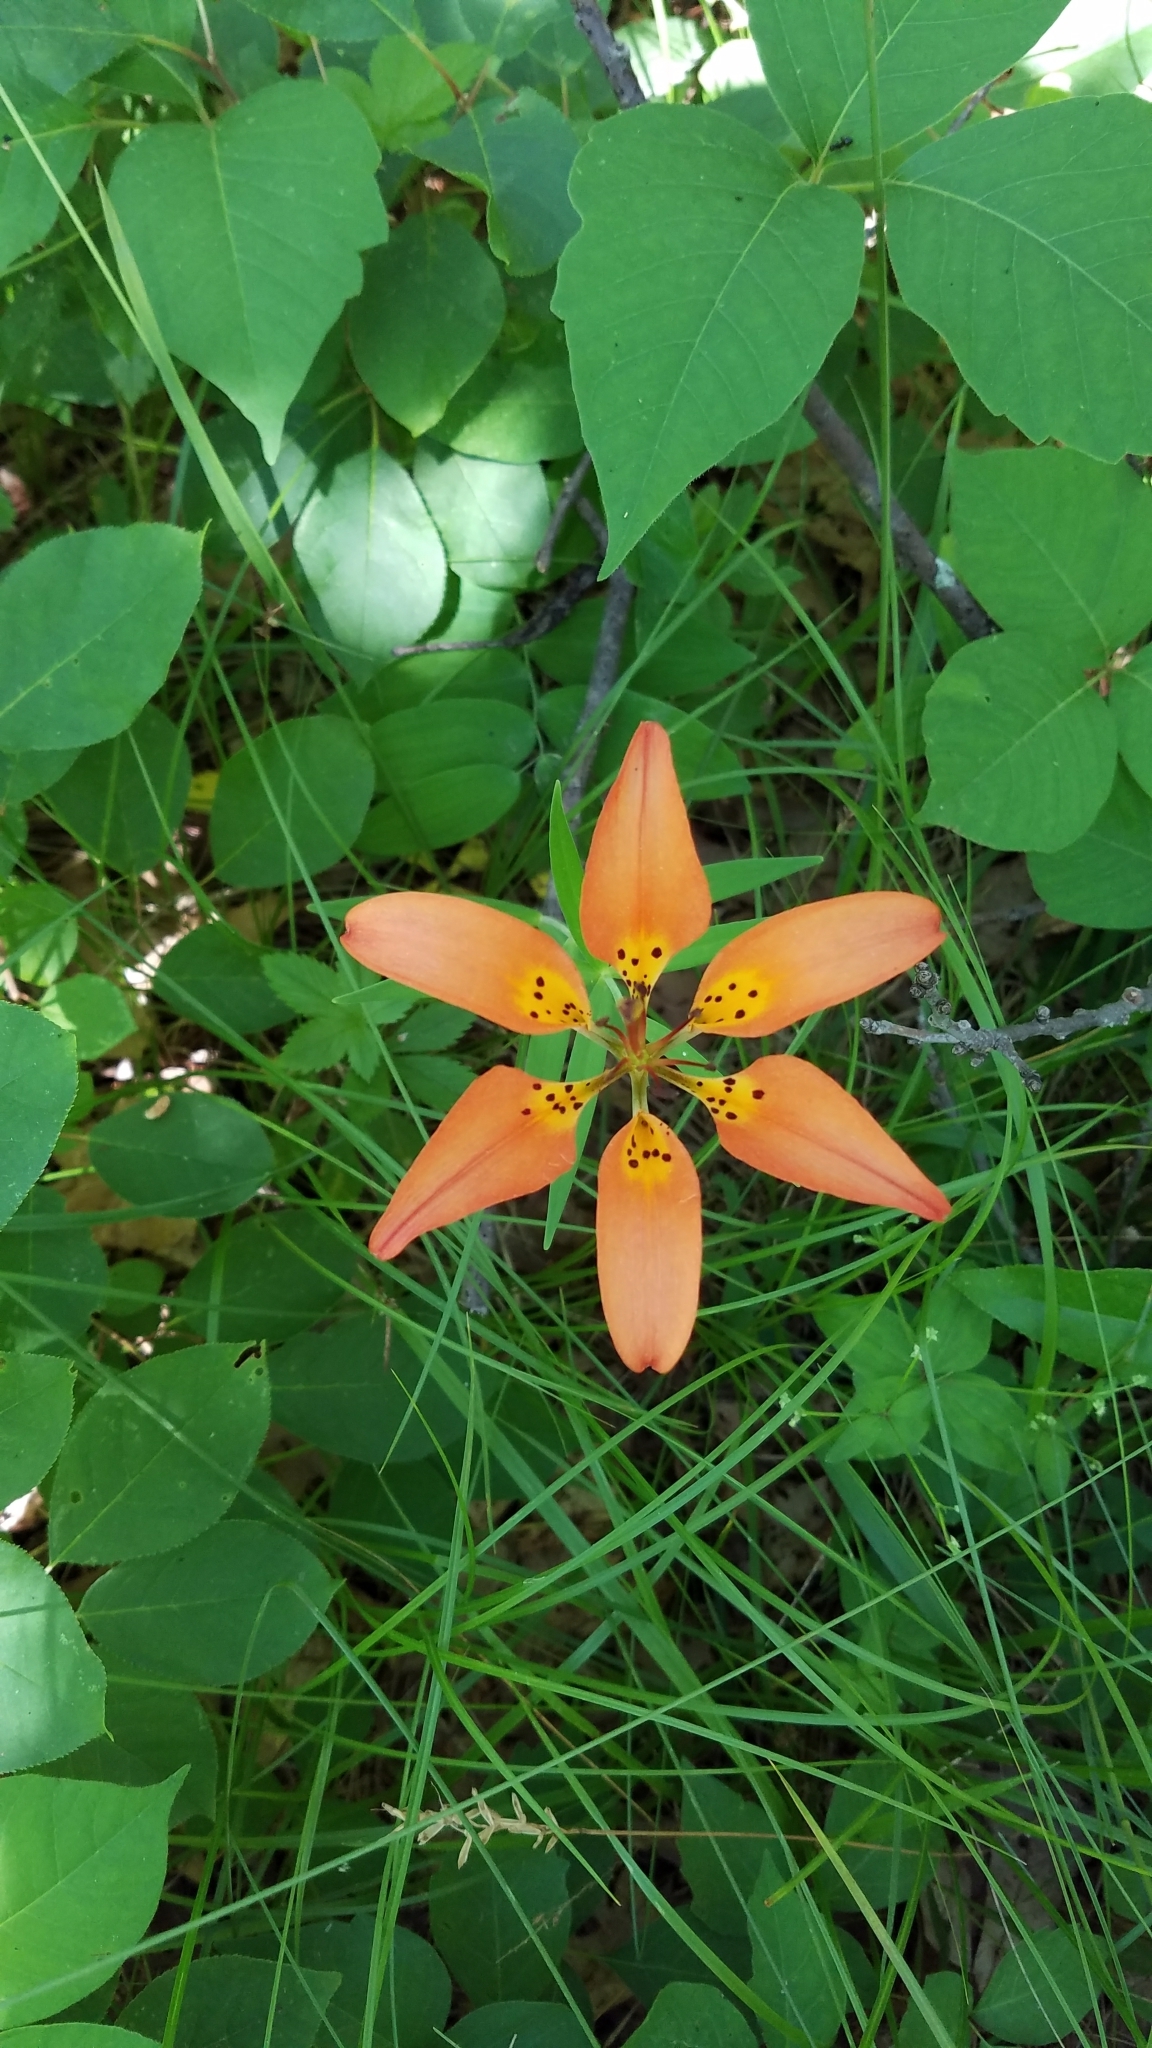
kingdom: Plantae
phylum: Tracheophyta
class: Liliopsida
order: Liliales
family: Liliaceae
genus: Lilium
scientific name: Lilium philadelphicum
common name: Red lily
